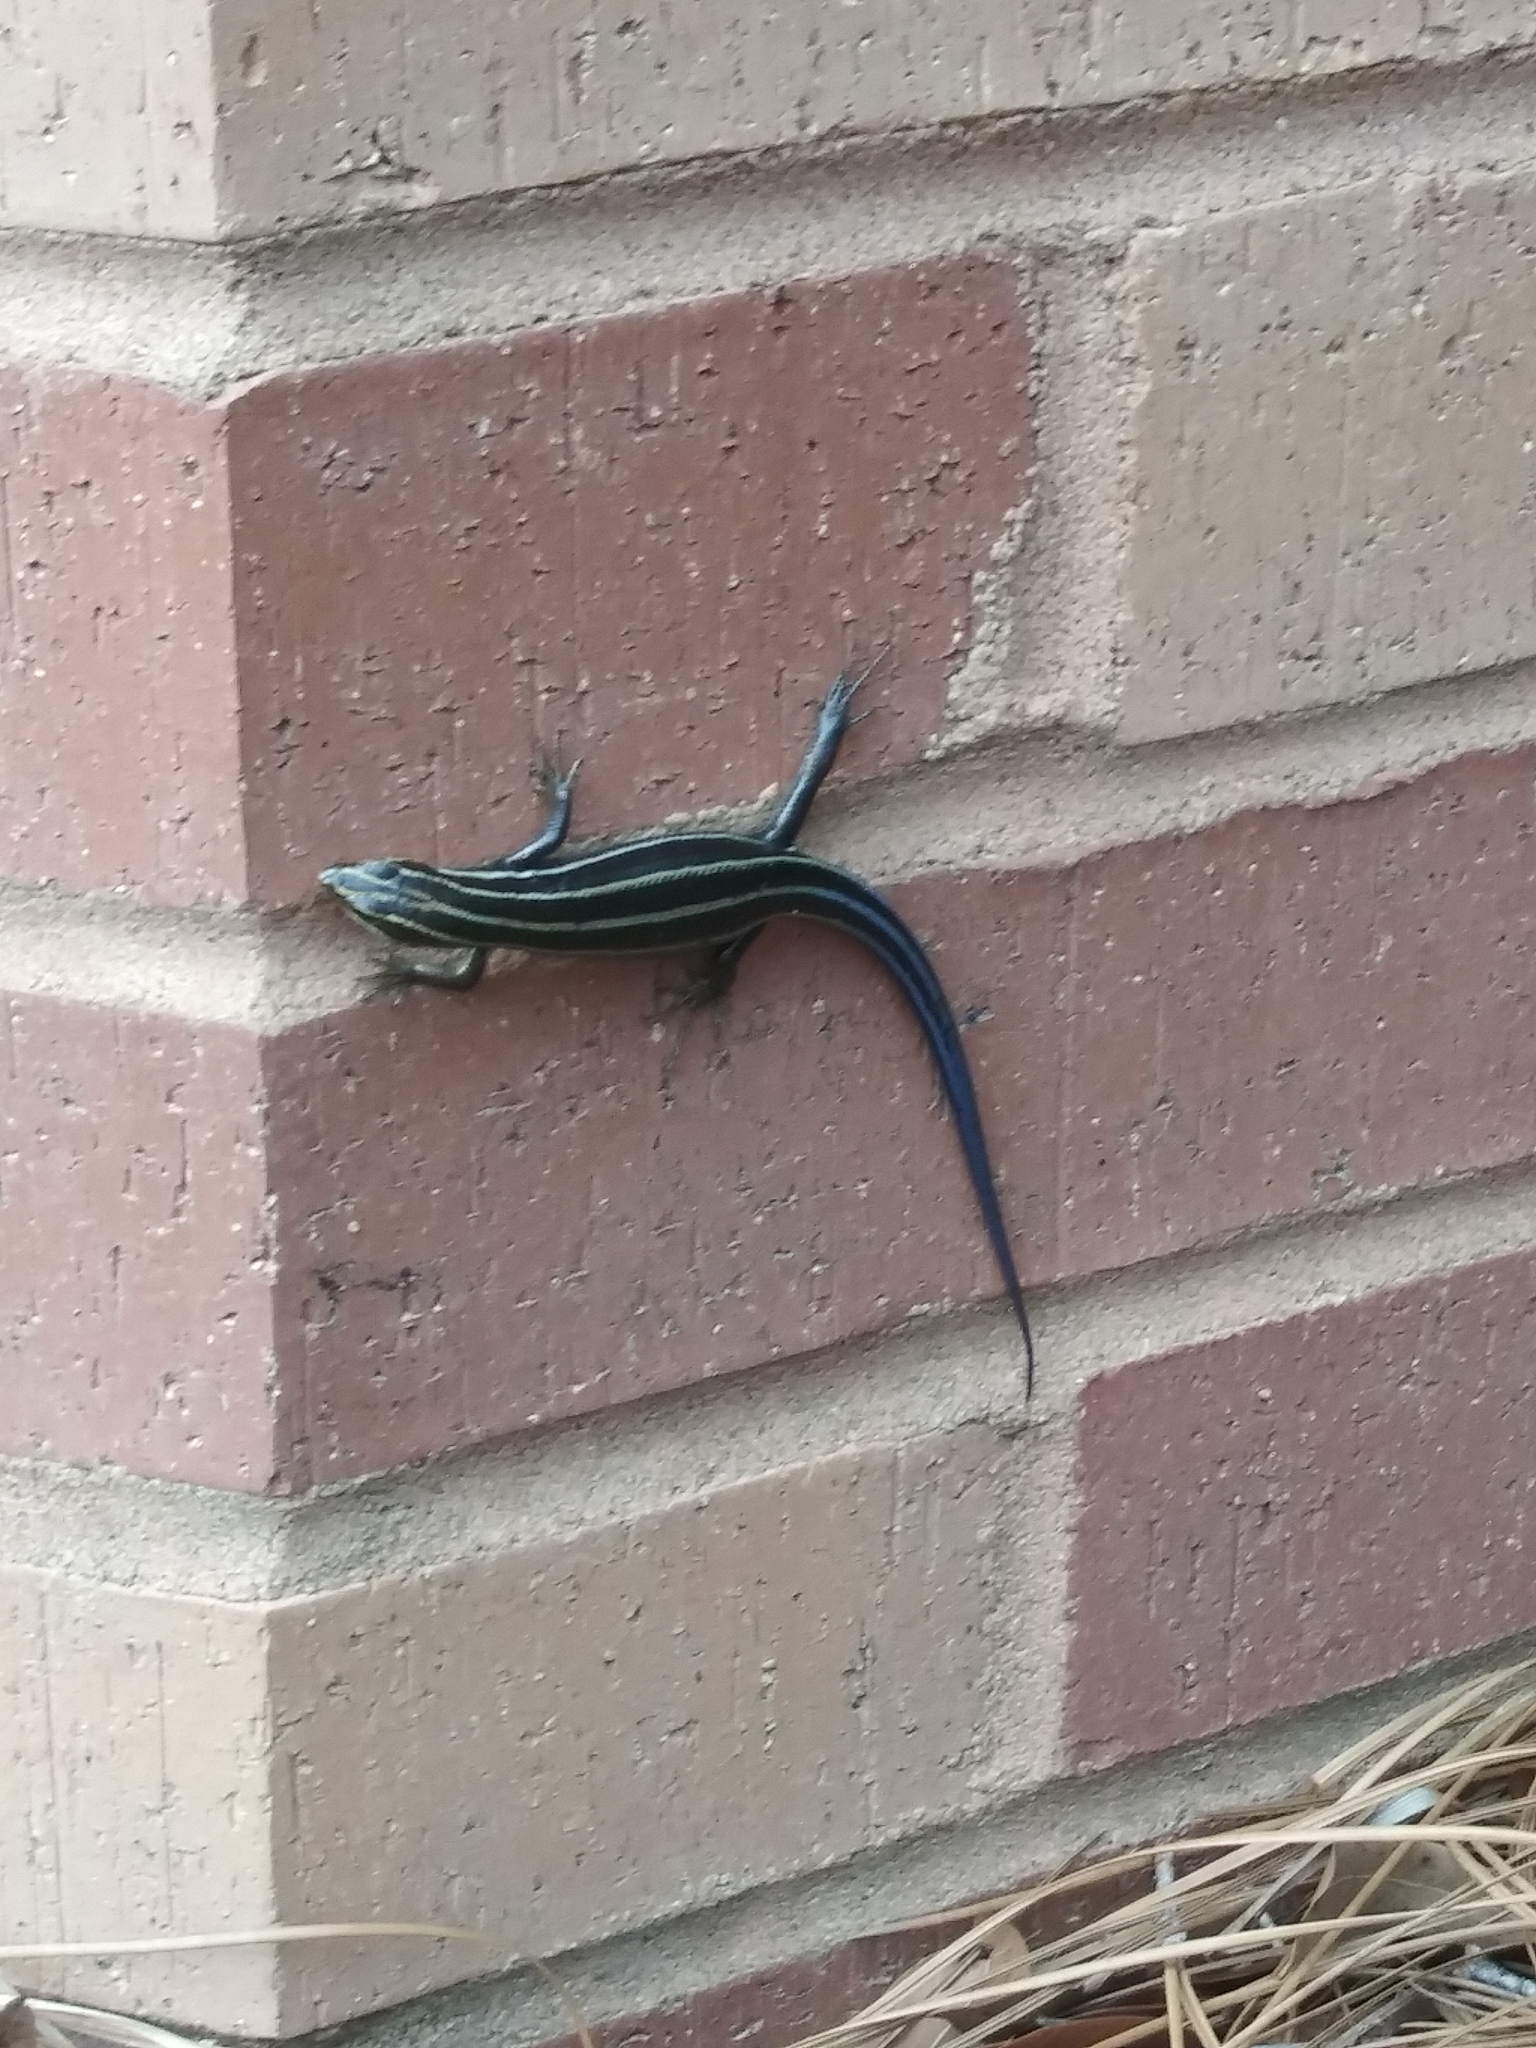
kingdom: Animalia
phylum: Chordata
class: Squamata
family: Scincidae
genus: Plestiodon
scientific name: Plestiodon
